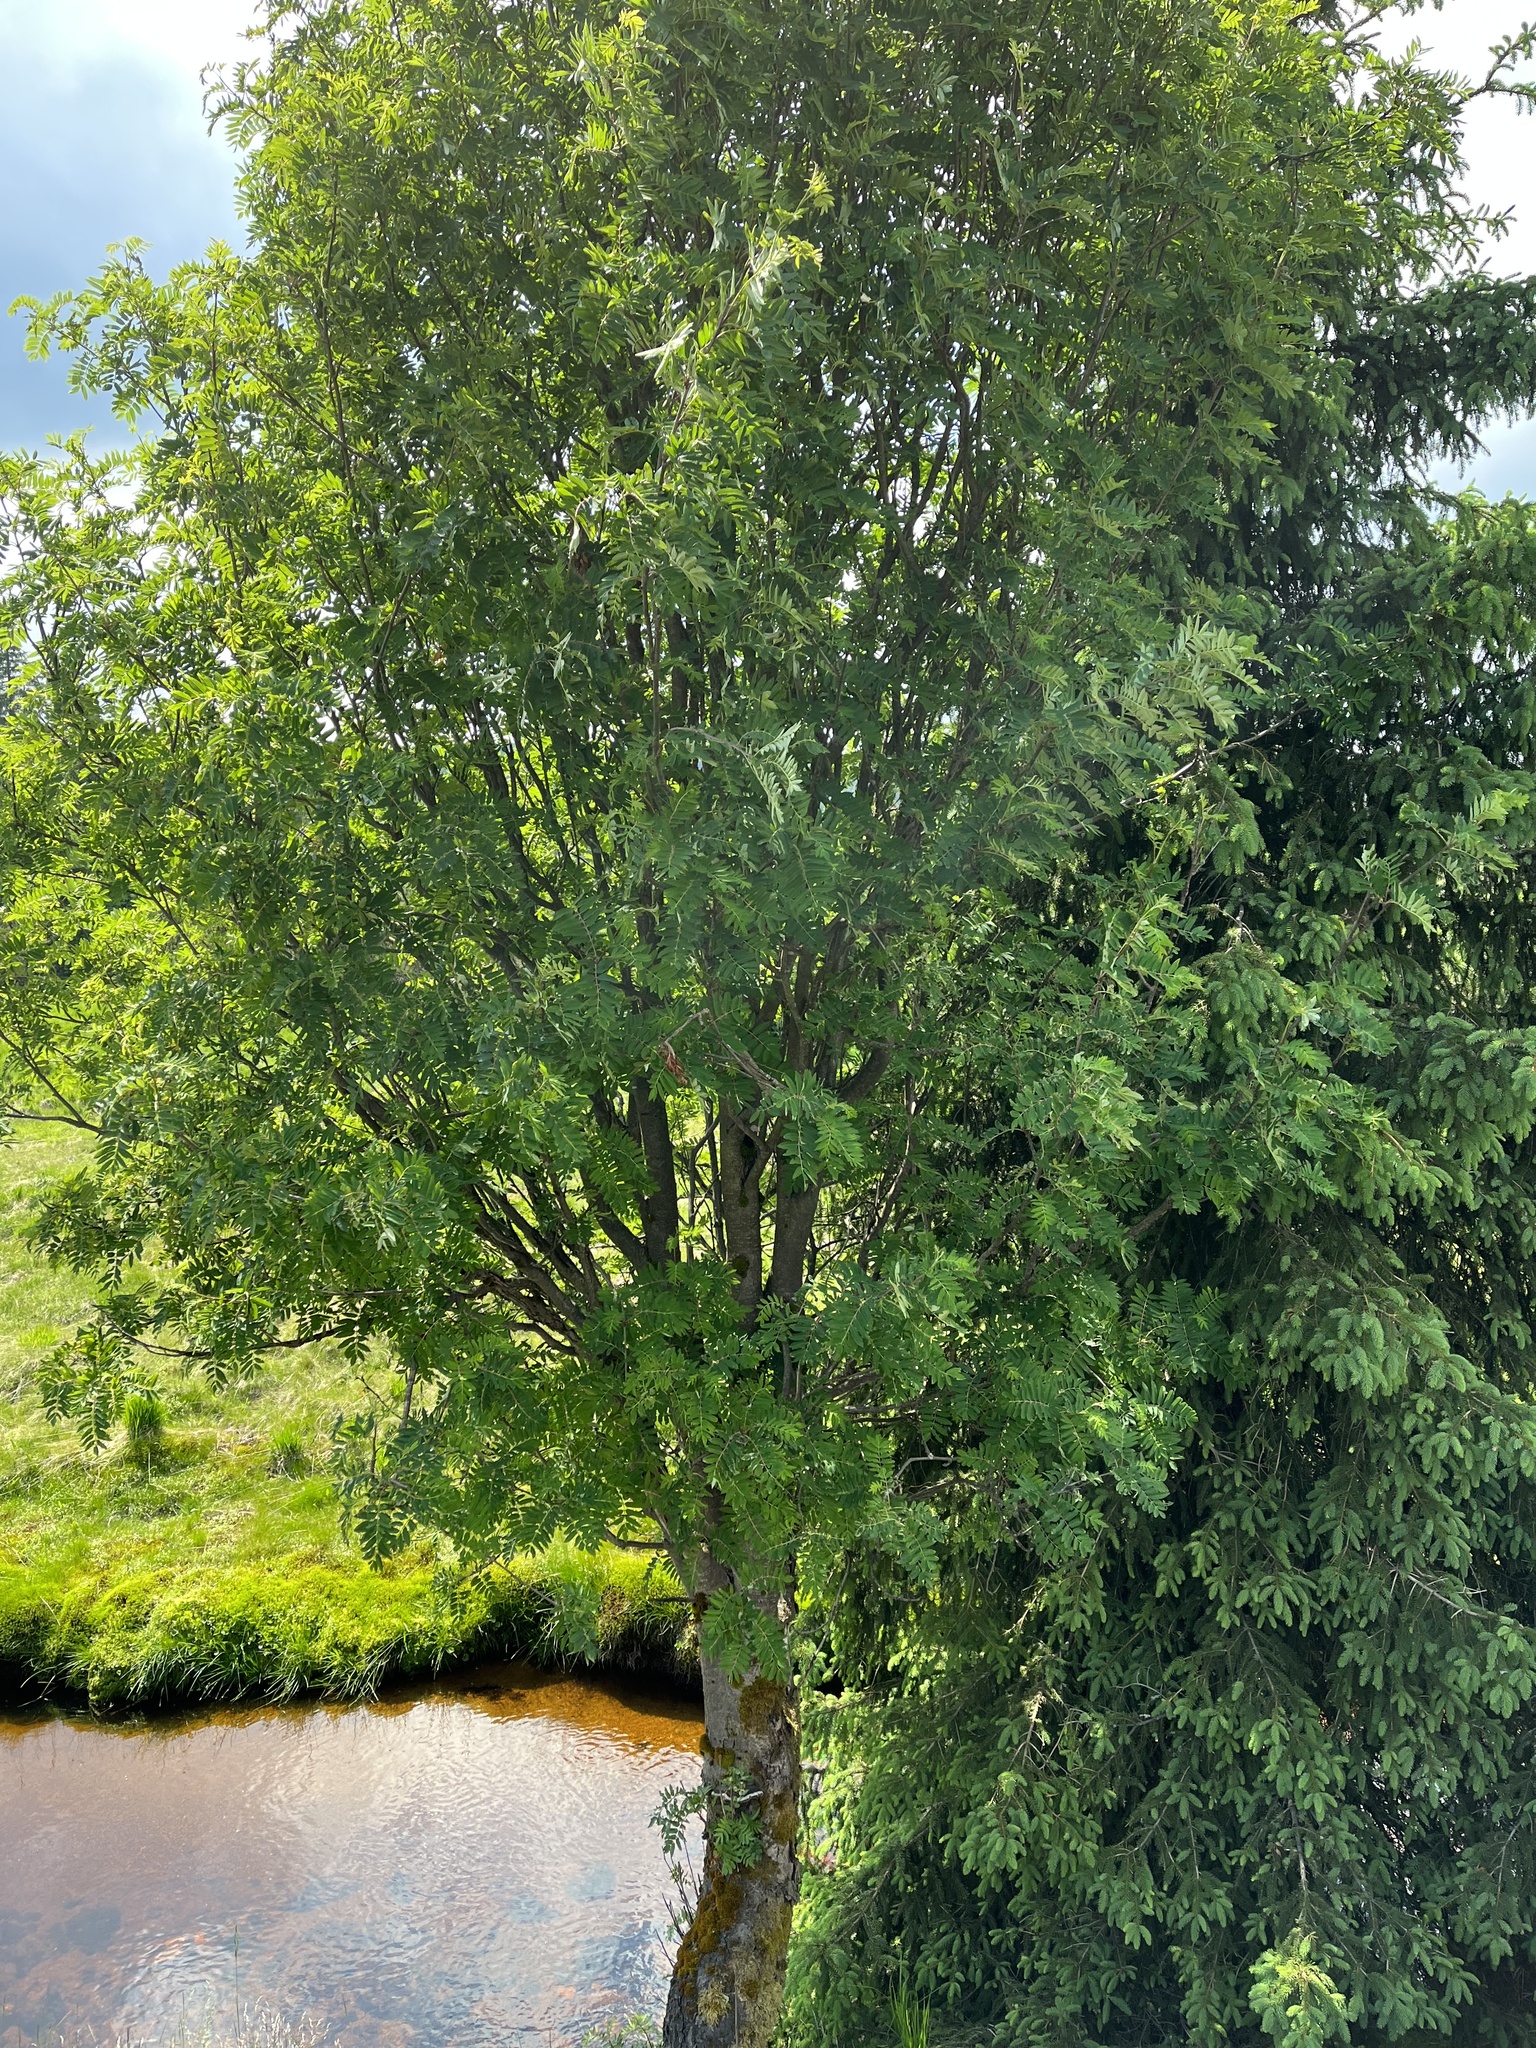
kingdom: Plantae
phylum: Tracheophyta
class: Magnoliopsida
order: Rosales
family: Rosaceae
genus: Sorbus
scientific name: Sorbus aucuparia
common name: Rowan
